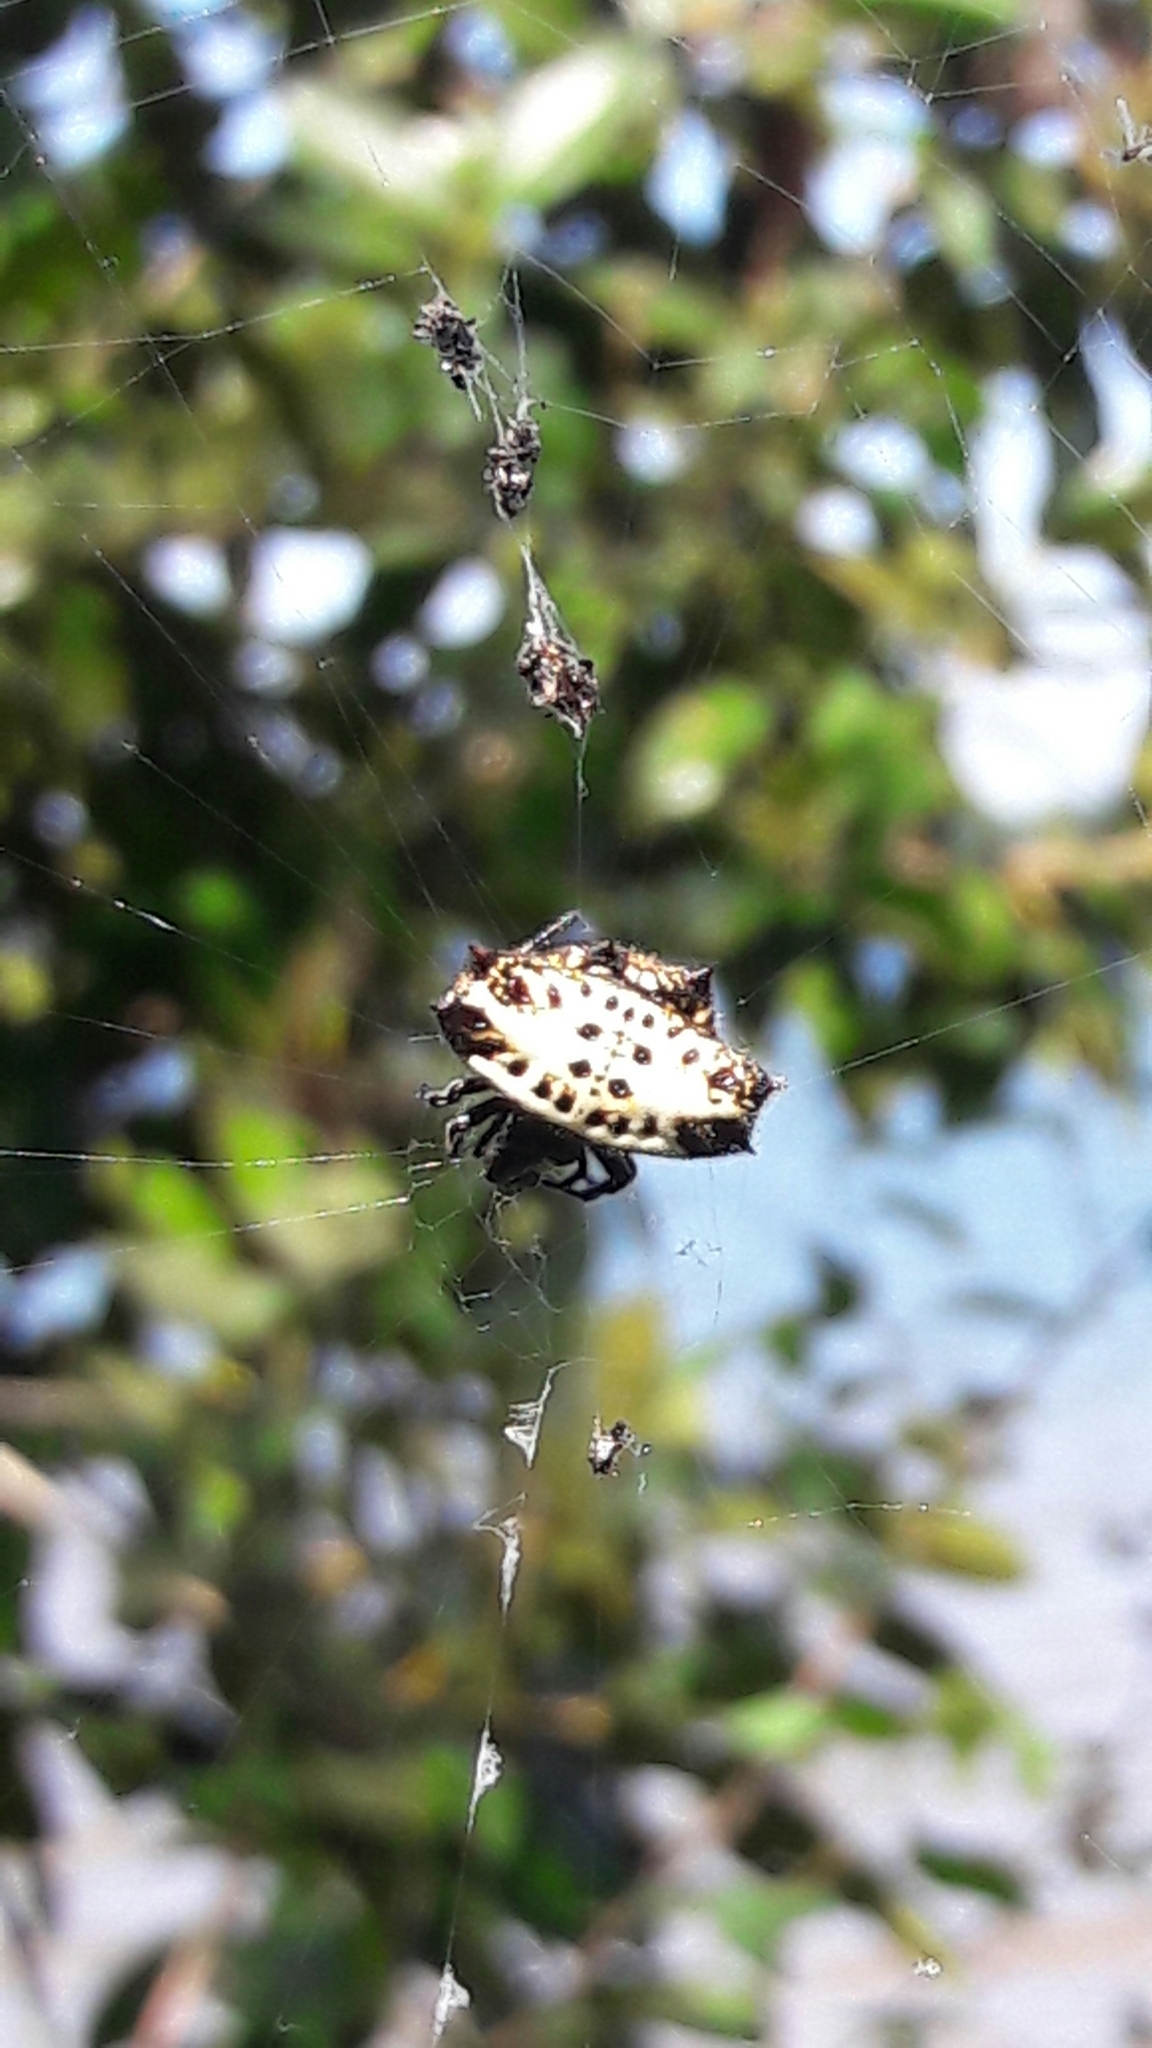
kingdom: Animalia
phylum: Arthropoda
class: Arachnida
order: Araneae
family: Araneidae
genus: Gasteracantha
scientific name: Gasteracantha cancriformis
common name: Orb weavers
